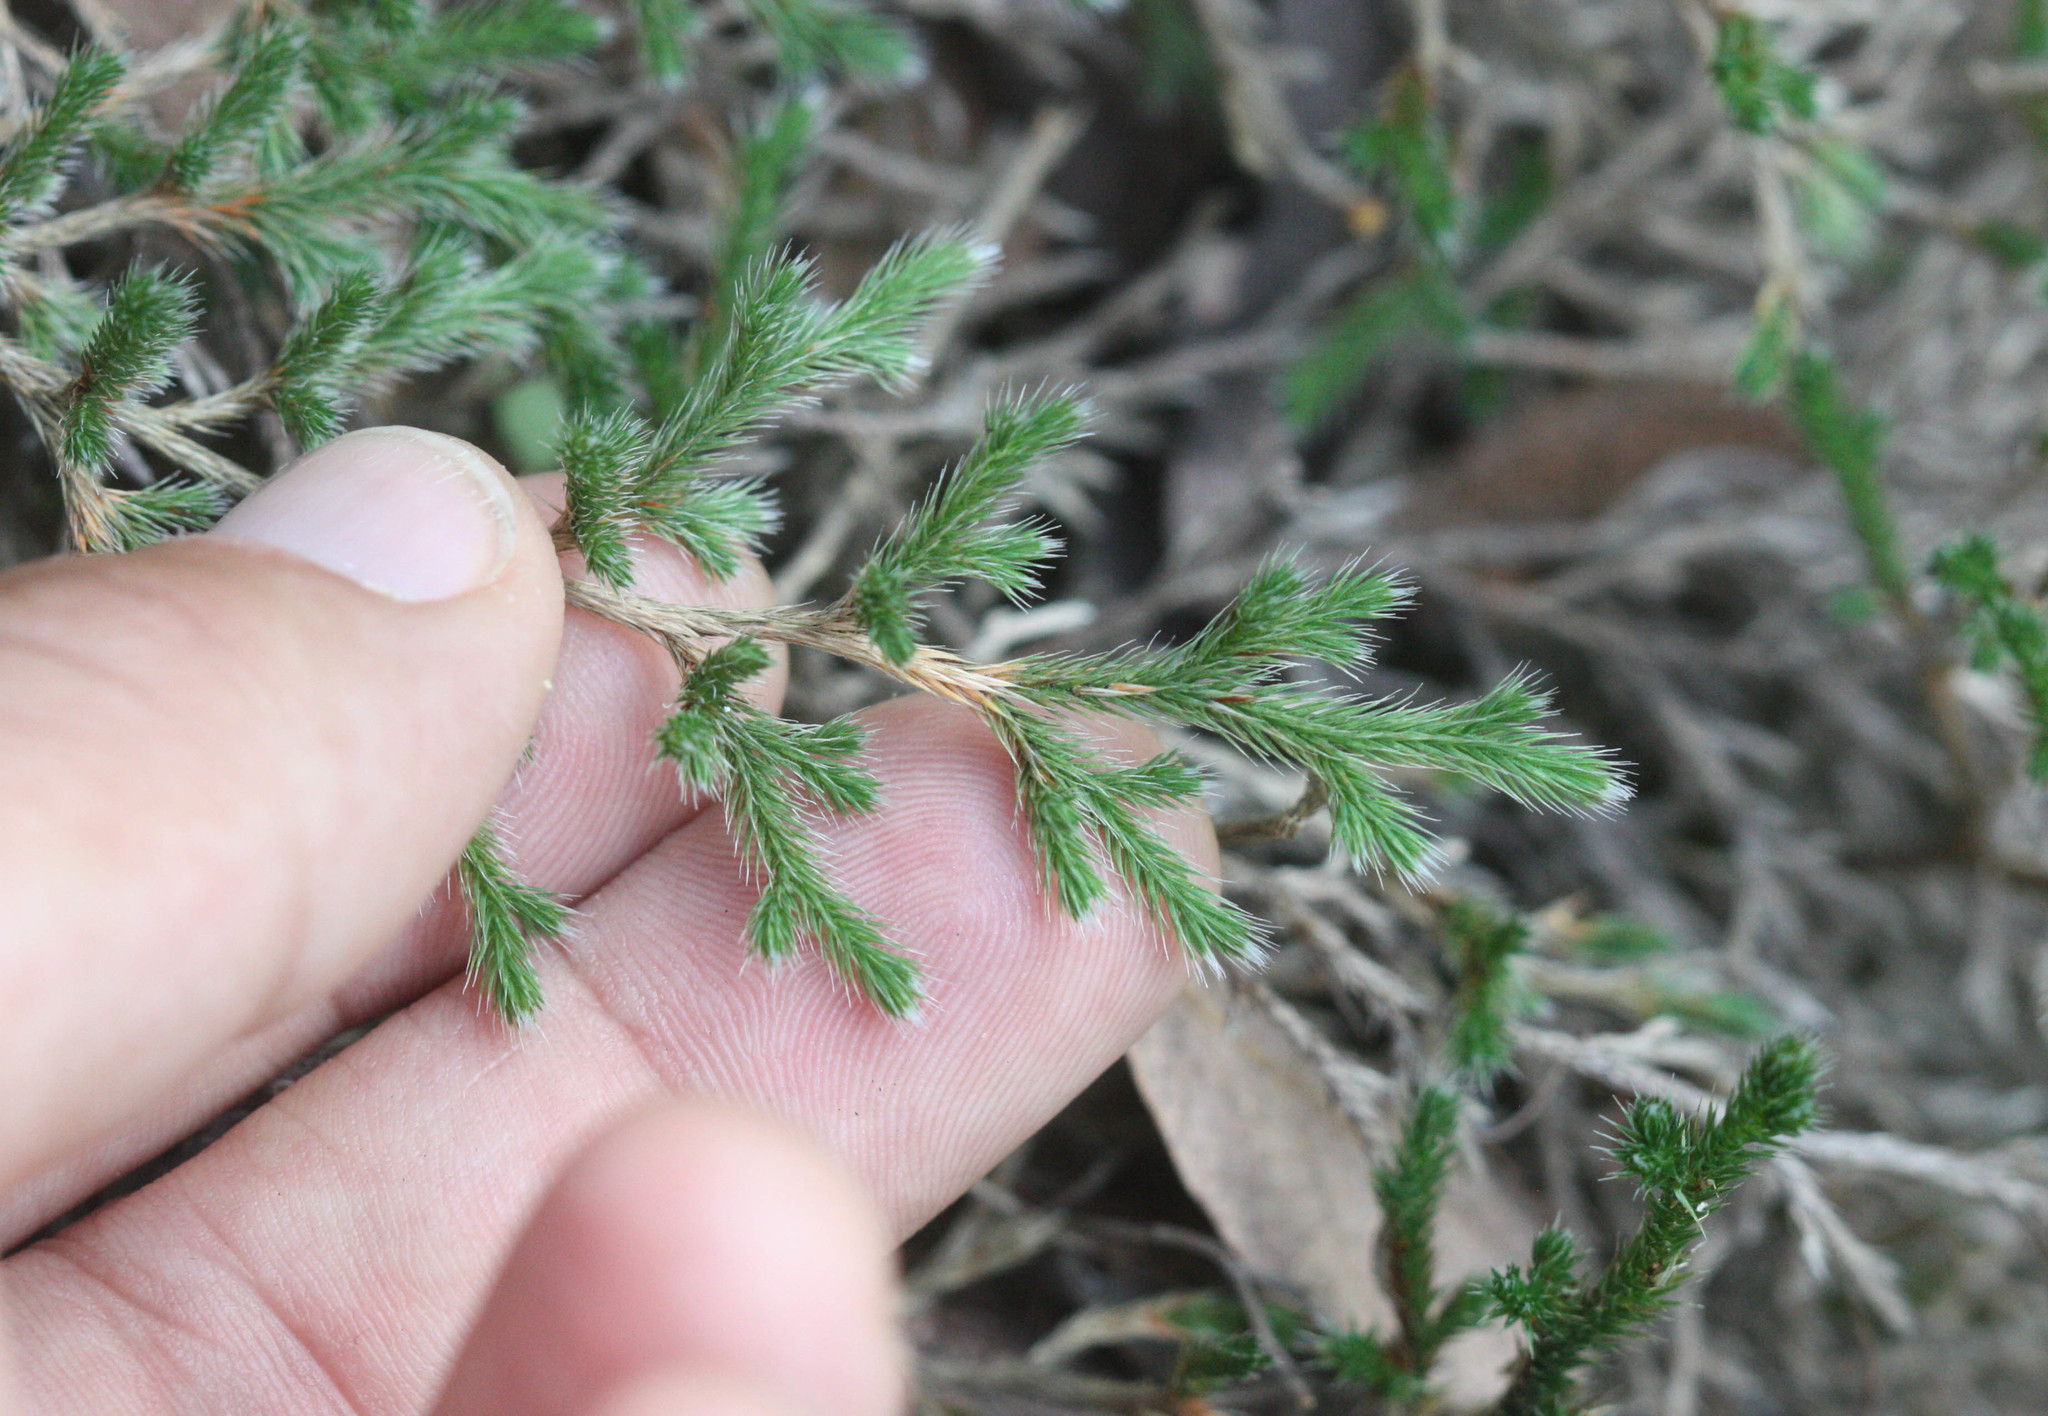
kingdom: Plantae
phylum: Tracheophyta
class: Lycopodiopsida
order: Selaginellales
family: Selaginellaceae
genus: Selaginella
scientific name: Selaginella rupincola
